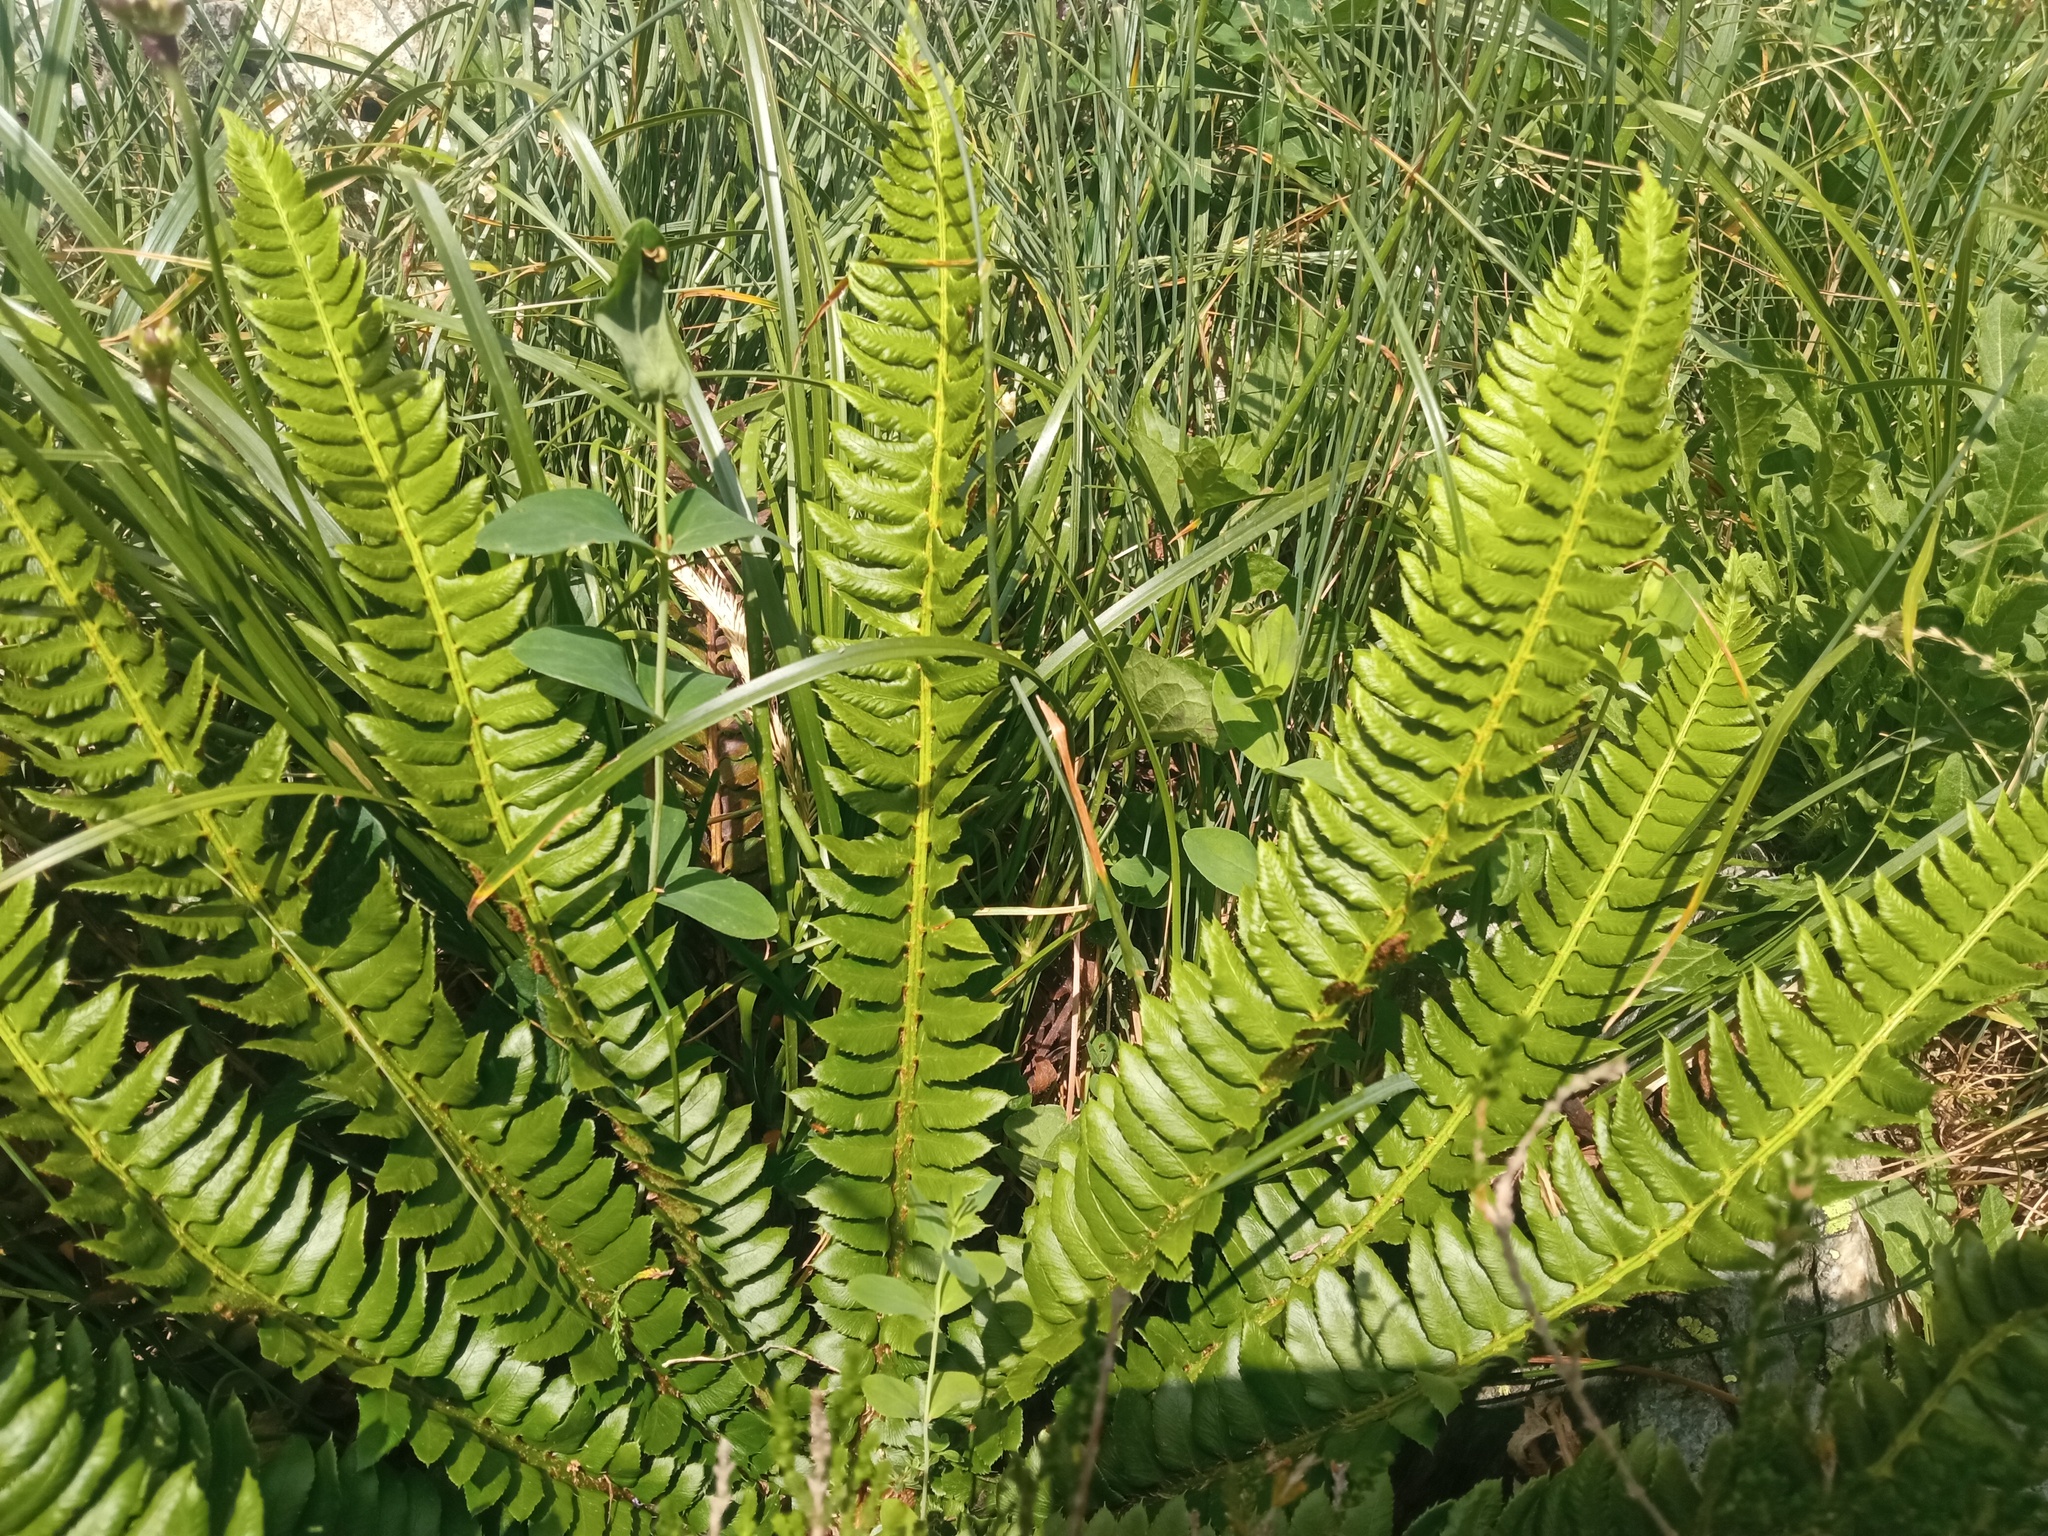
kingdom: Plantae
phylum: Tracheophyta
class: Polypodiopsida
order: Polypodiales
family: Dryopteridaceae
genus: Polystichum
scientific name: Polystichum lonchitis
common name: Holly fern
